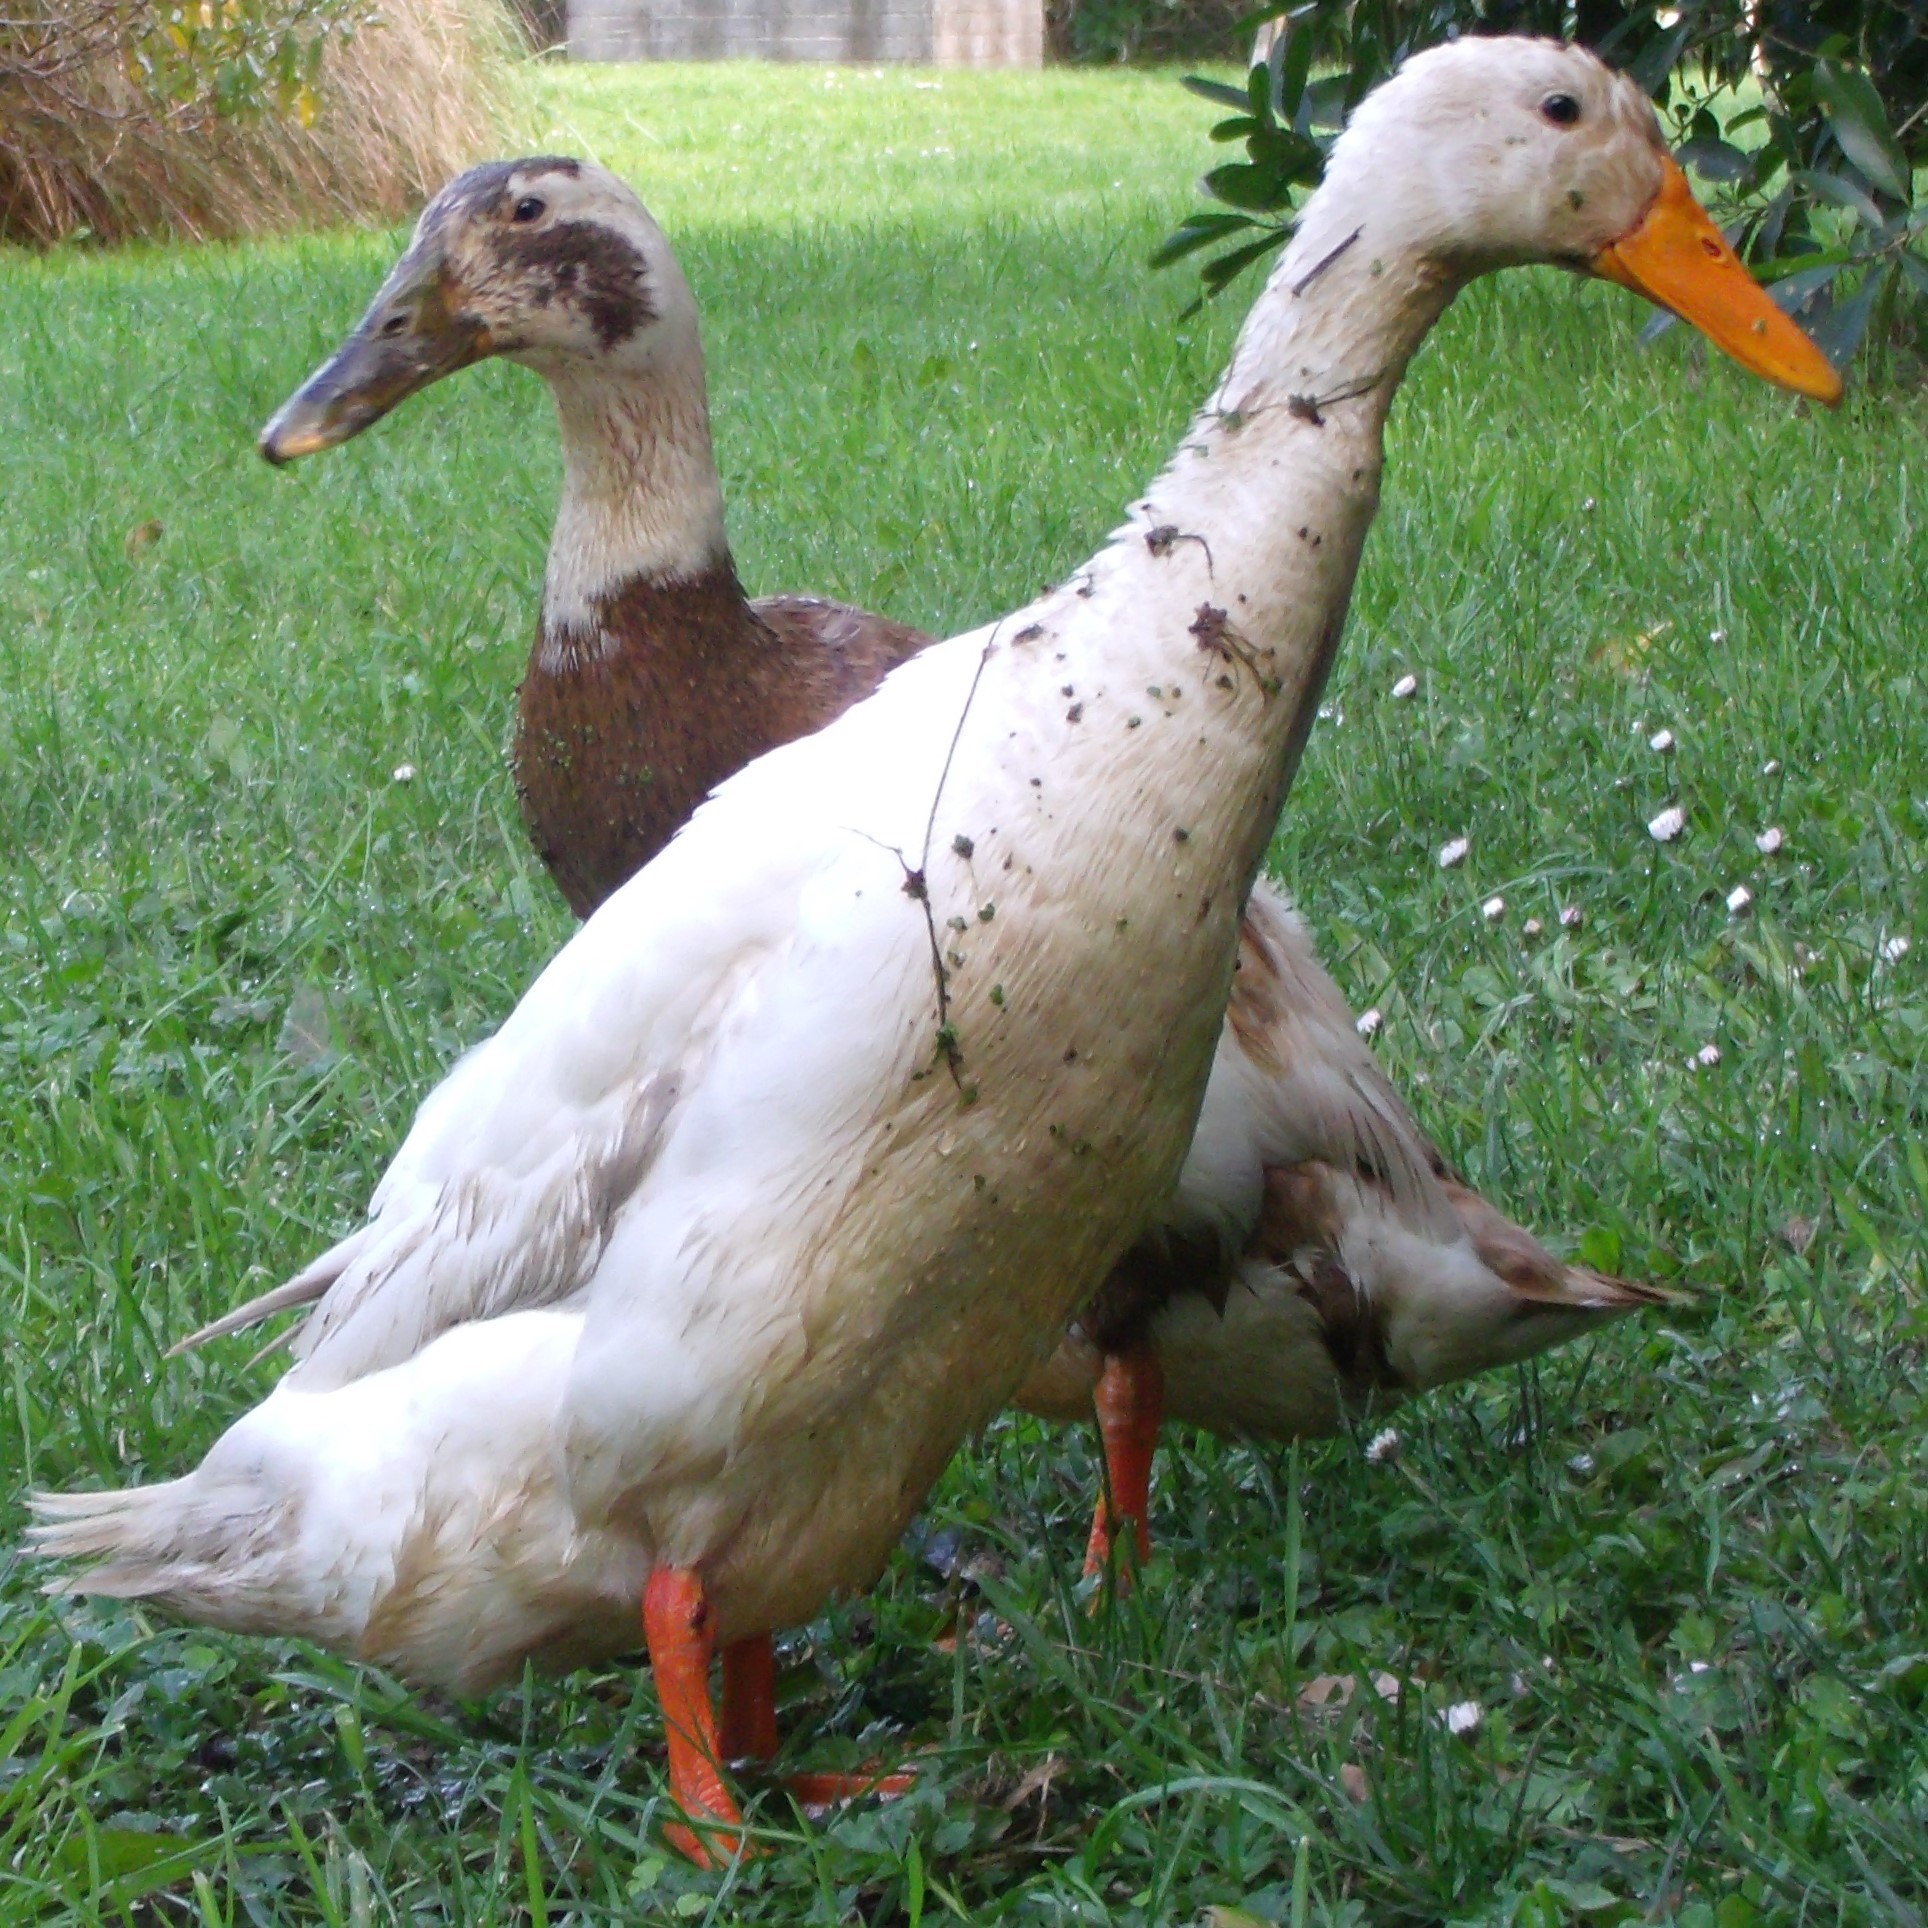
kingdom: Animalia
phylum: Chordata
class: Aves
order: Anseriformes
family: Anatidae
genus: Anas
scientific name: Anas platyrhynchos
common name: Mallard
